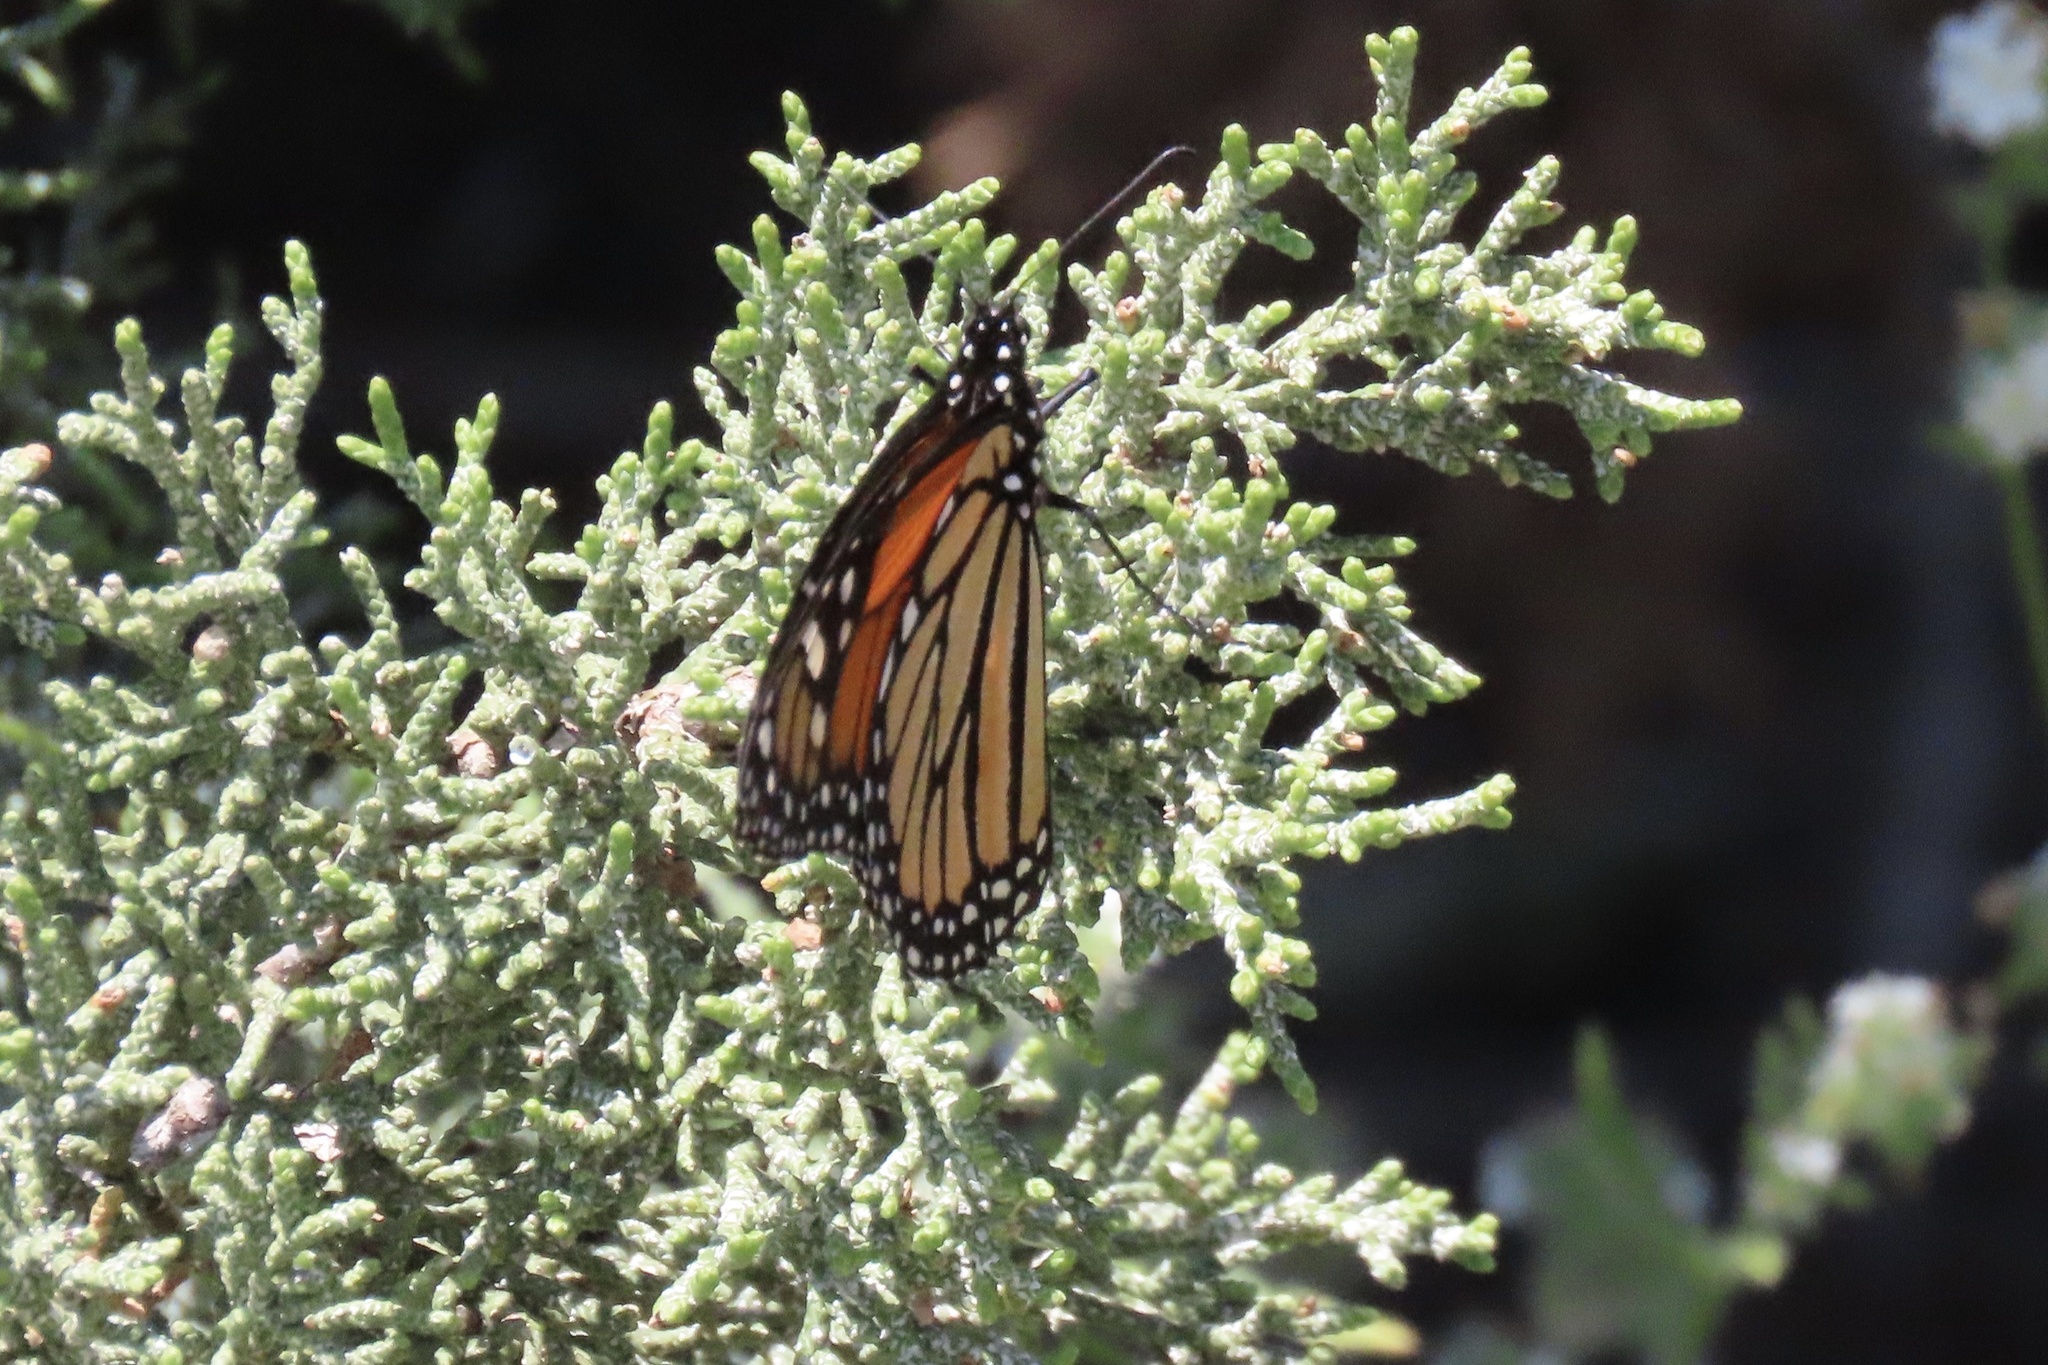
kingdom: Animalia
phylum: Arthropoda
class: Insecta
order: Lepidoptera
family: Nymphalidae
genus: Danaus
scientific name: Danaus plexippus
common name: Monarch
